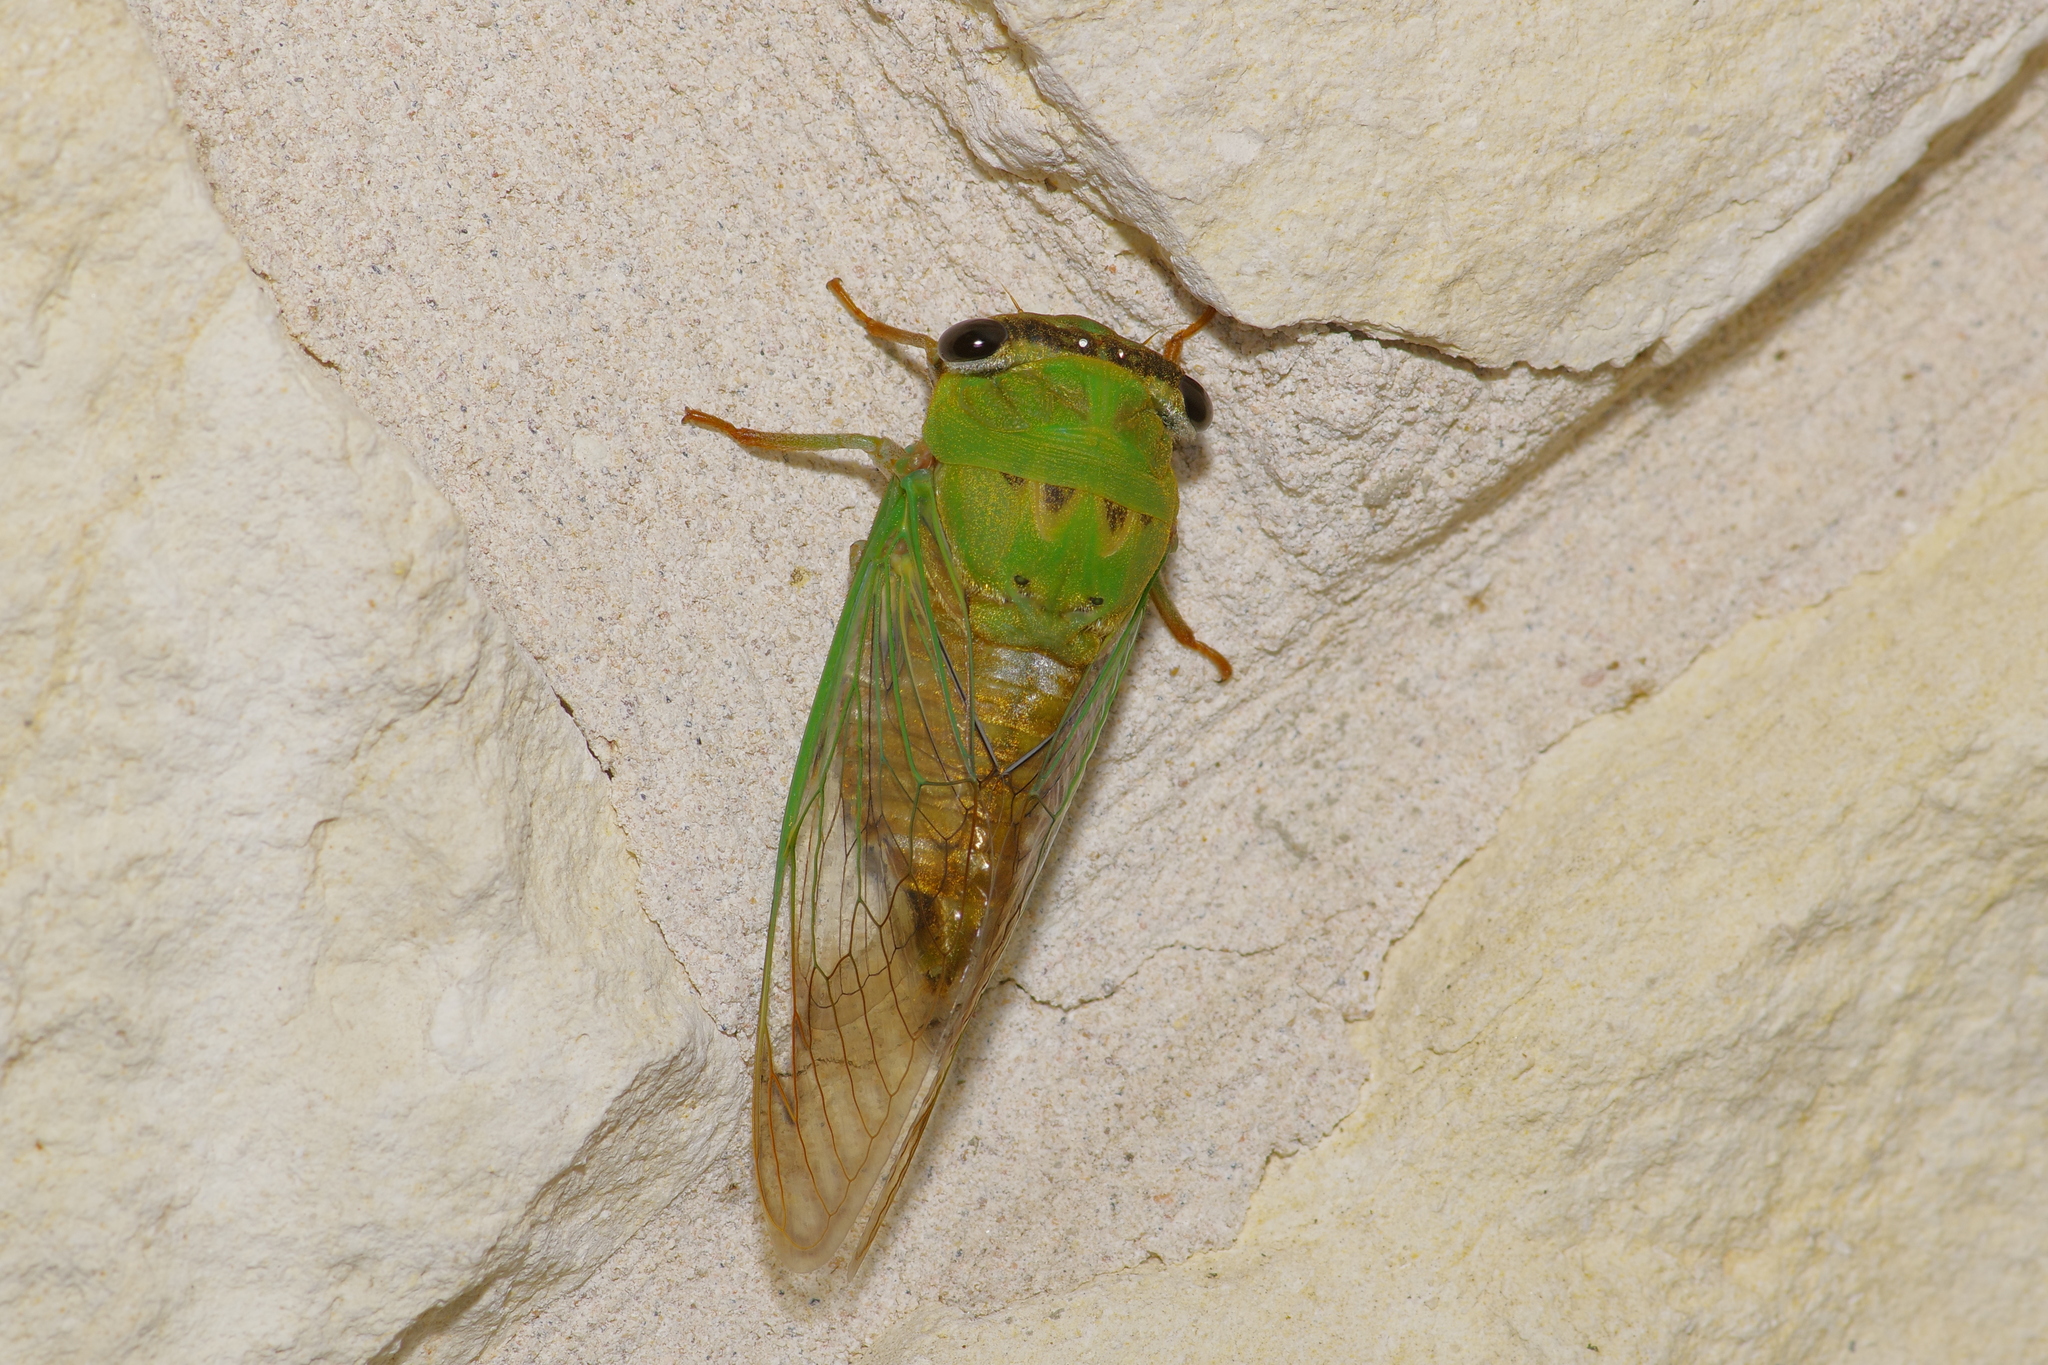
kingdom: Animalia
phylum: Arthropoda
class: Insecta
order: Hemiptera
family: Cicadidae
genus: Neotibicen
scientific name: Neotibicen superbus
